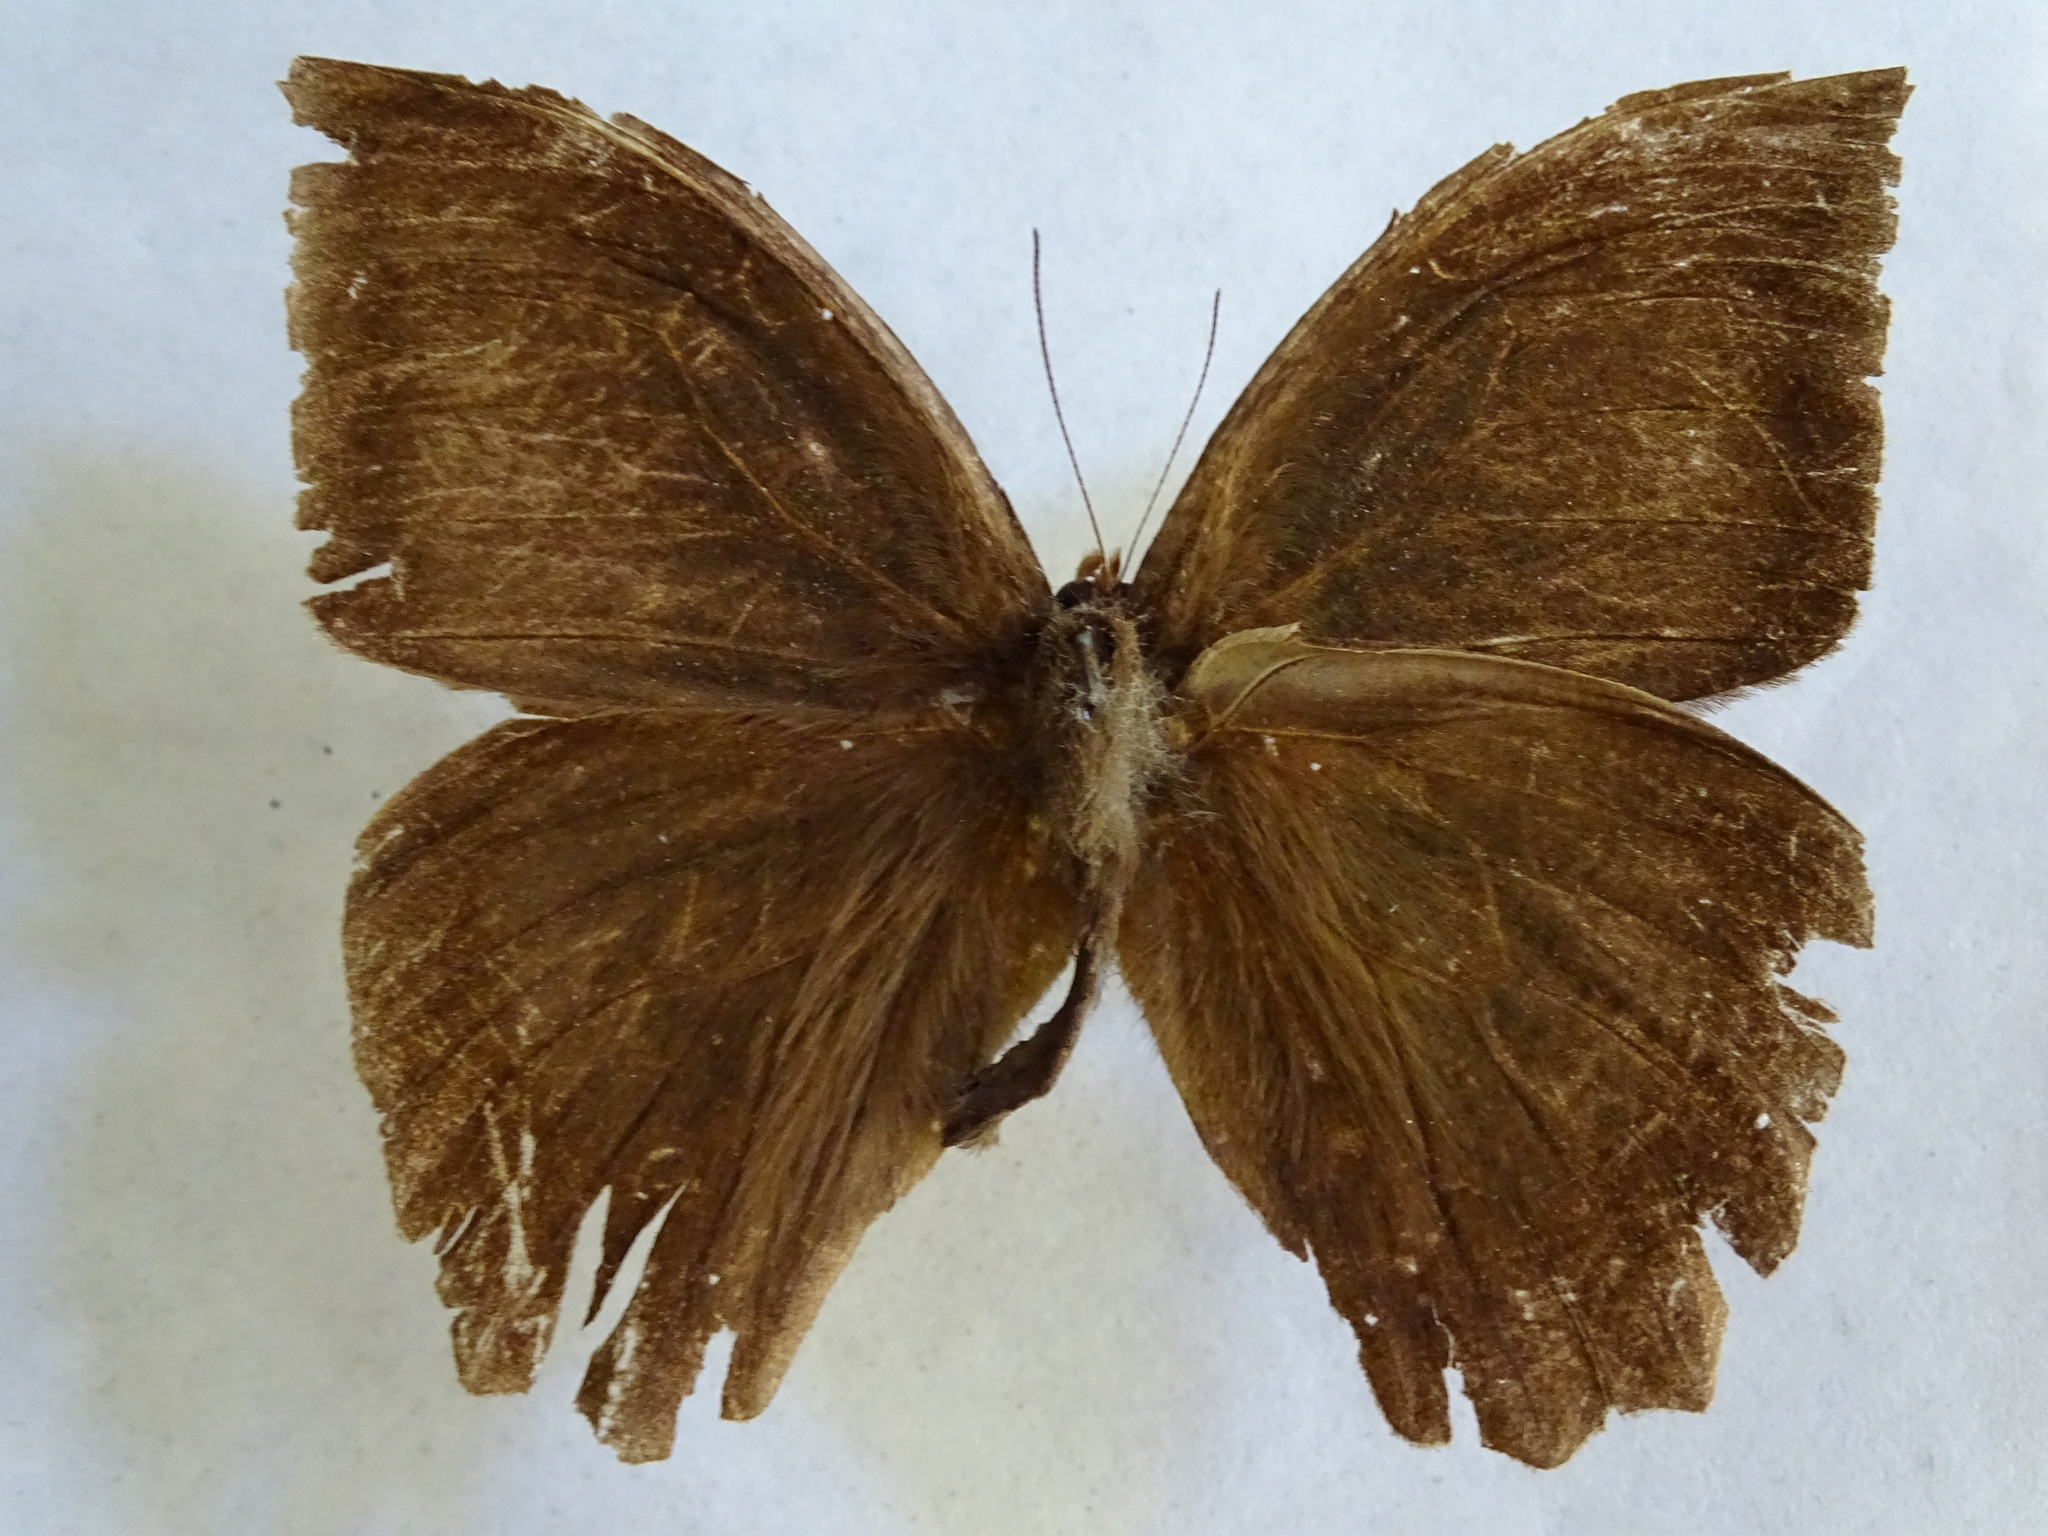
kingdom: Animalia
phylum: Arthropoda
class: Insecta
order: Lepidoptera
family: Nymphalidae
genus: Taygetis
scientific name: Taygetis mermeria
